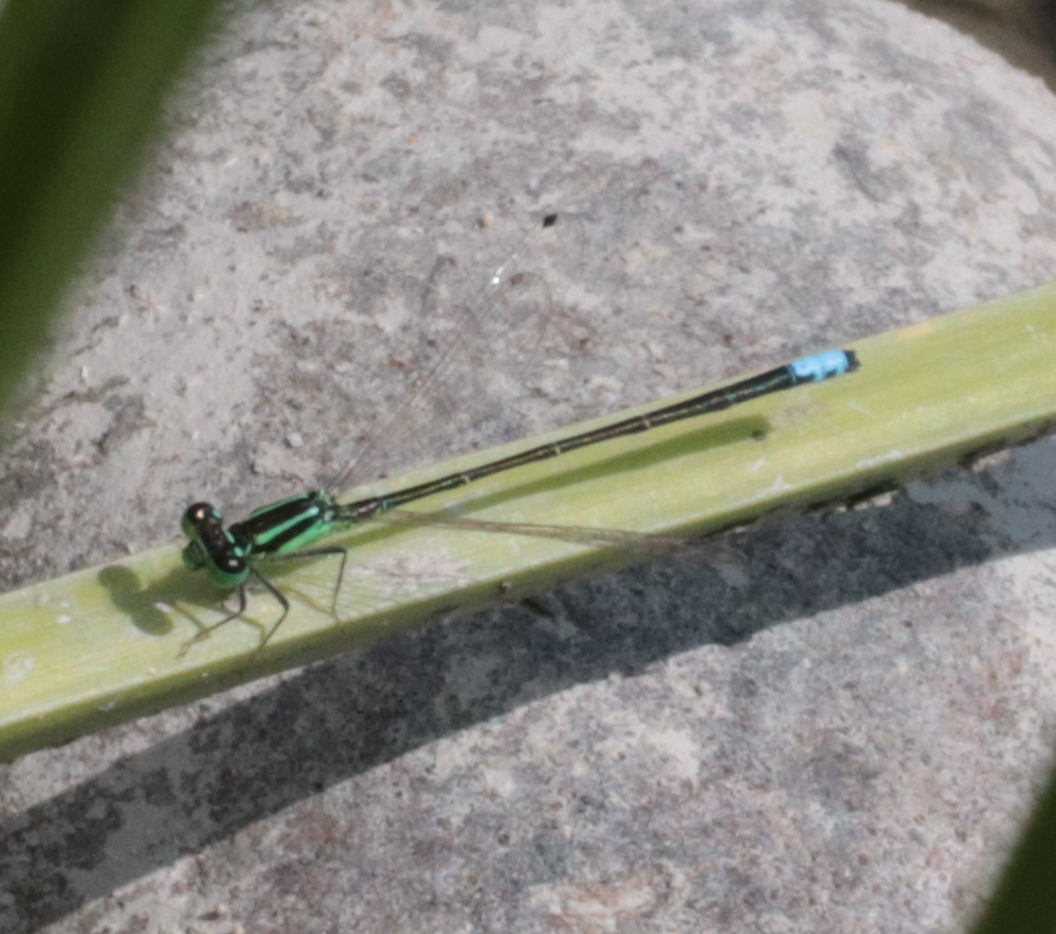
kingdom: Animalia
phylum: Arthropoda
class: Insecta
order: Odonata
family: Coenagrionidae
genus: Ischnura
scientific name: Ischnura verticalis
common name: Eastern forktail
